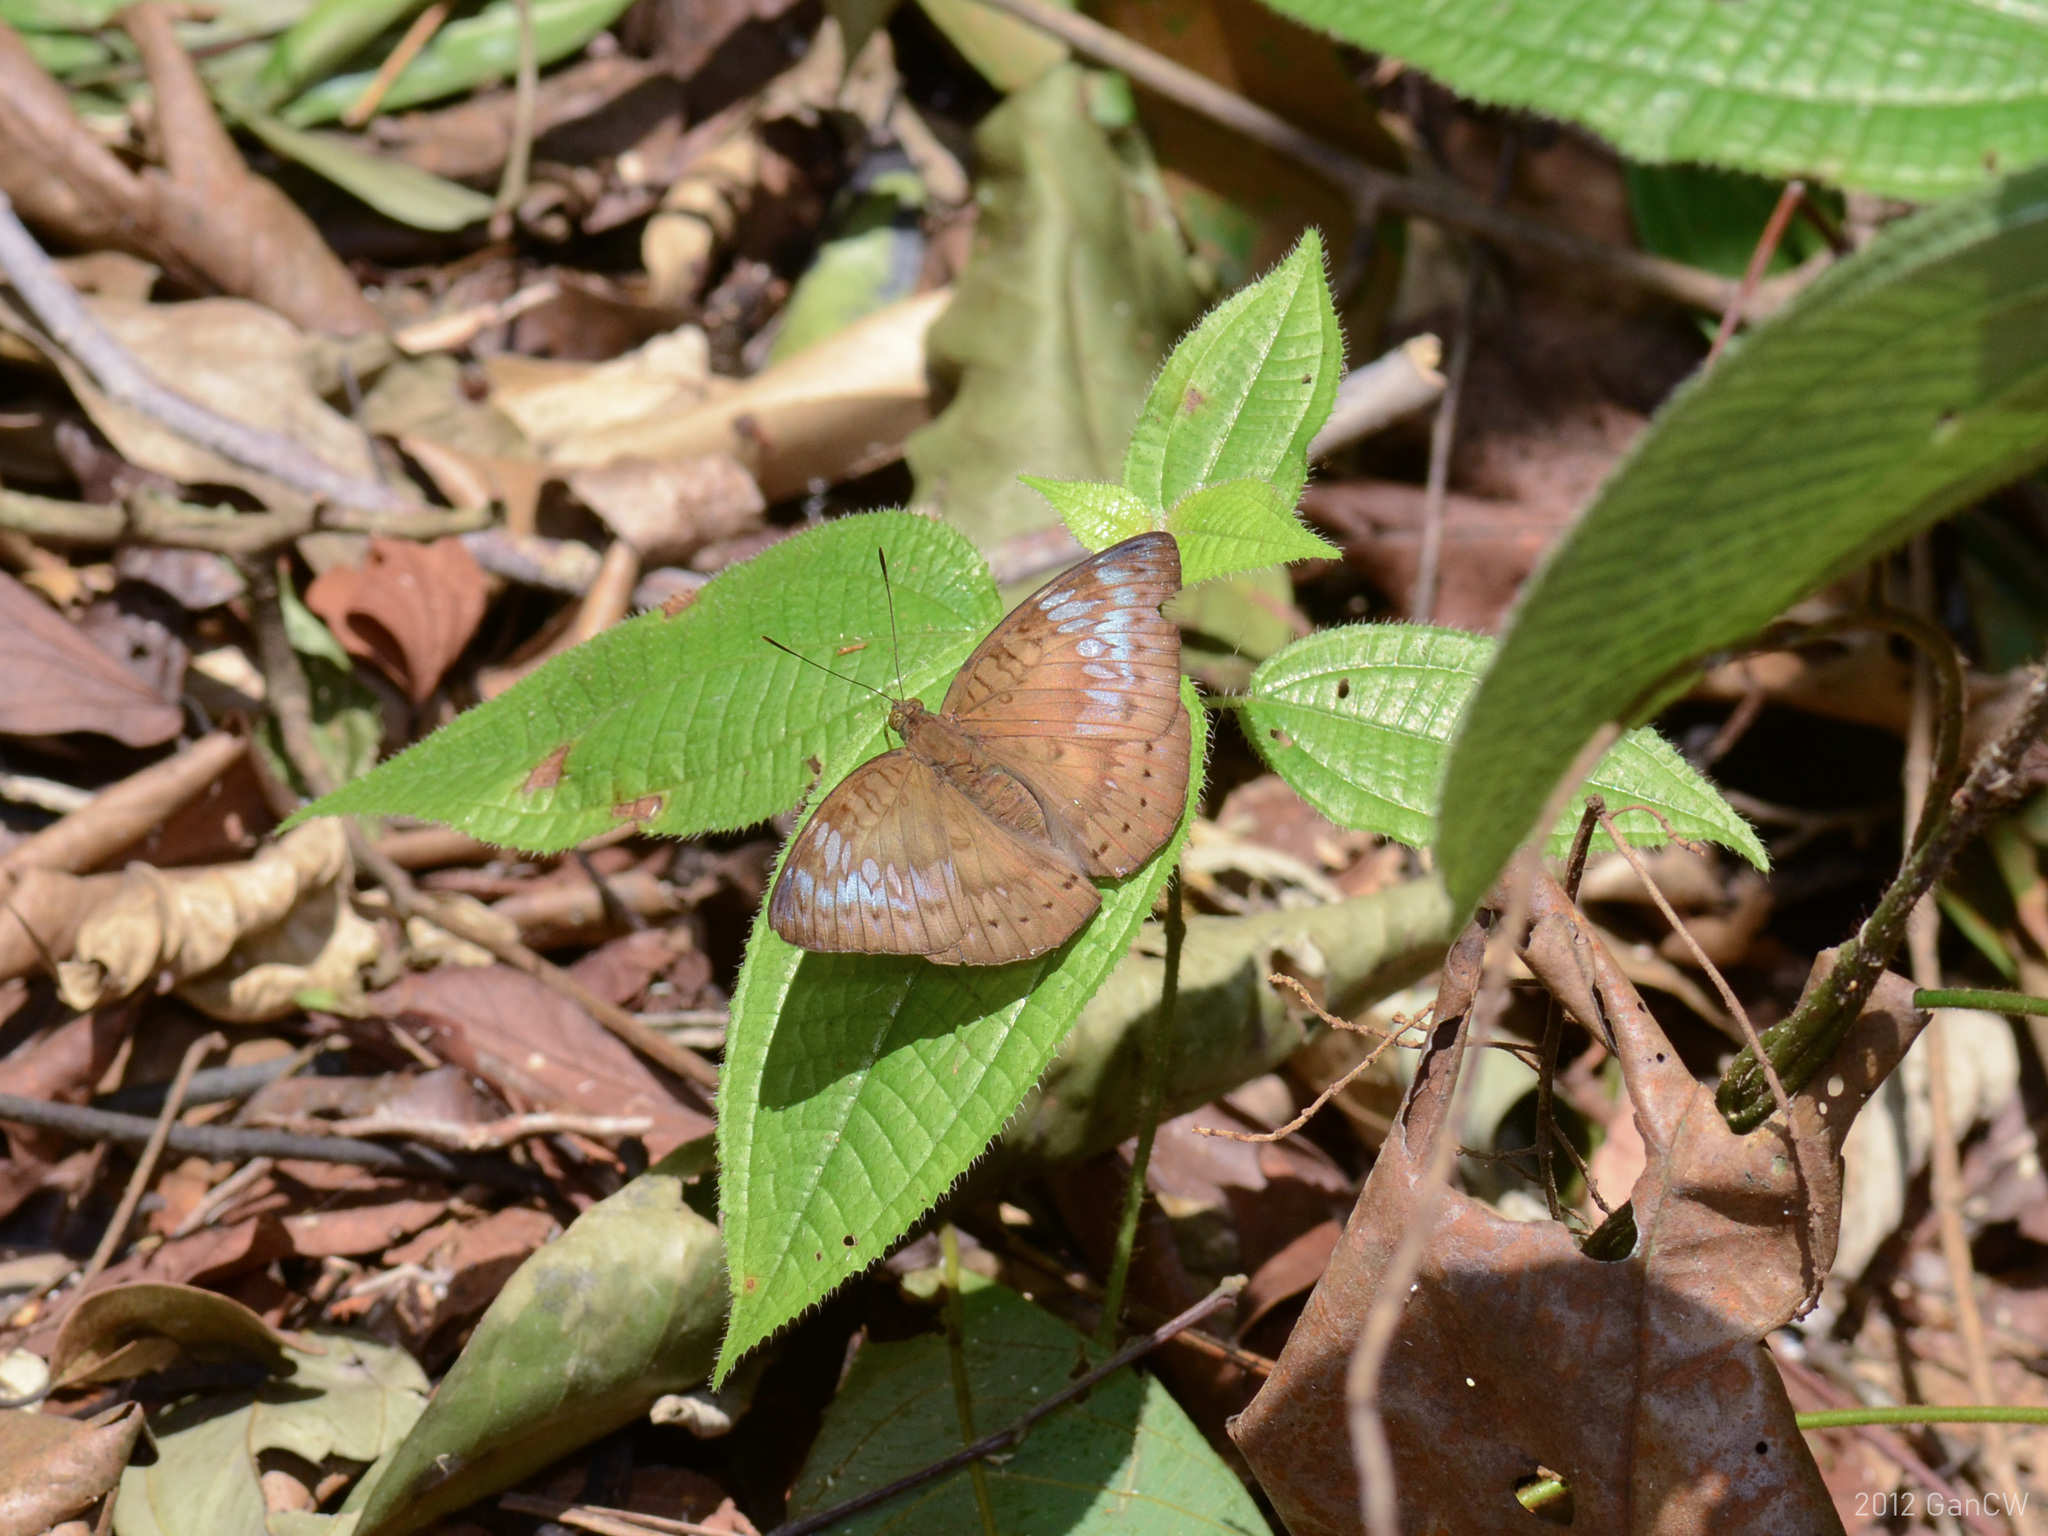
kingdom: Animalia
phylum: Arthropoda
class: Insecta
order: Lepidoptera
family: Nymphalidae
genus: Euthalia
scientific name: Euthalia merta
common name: White tipped baron
